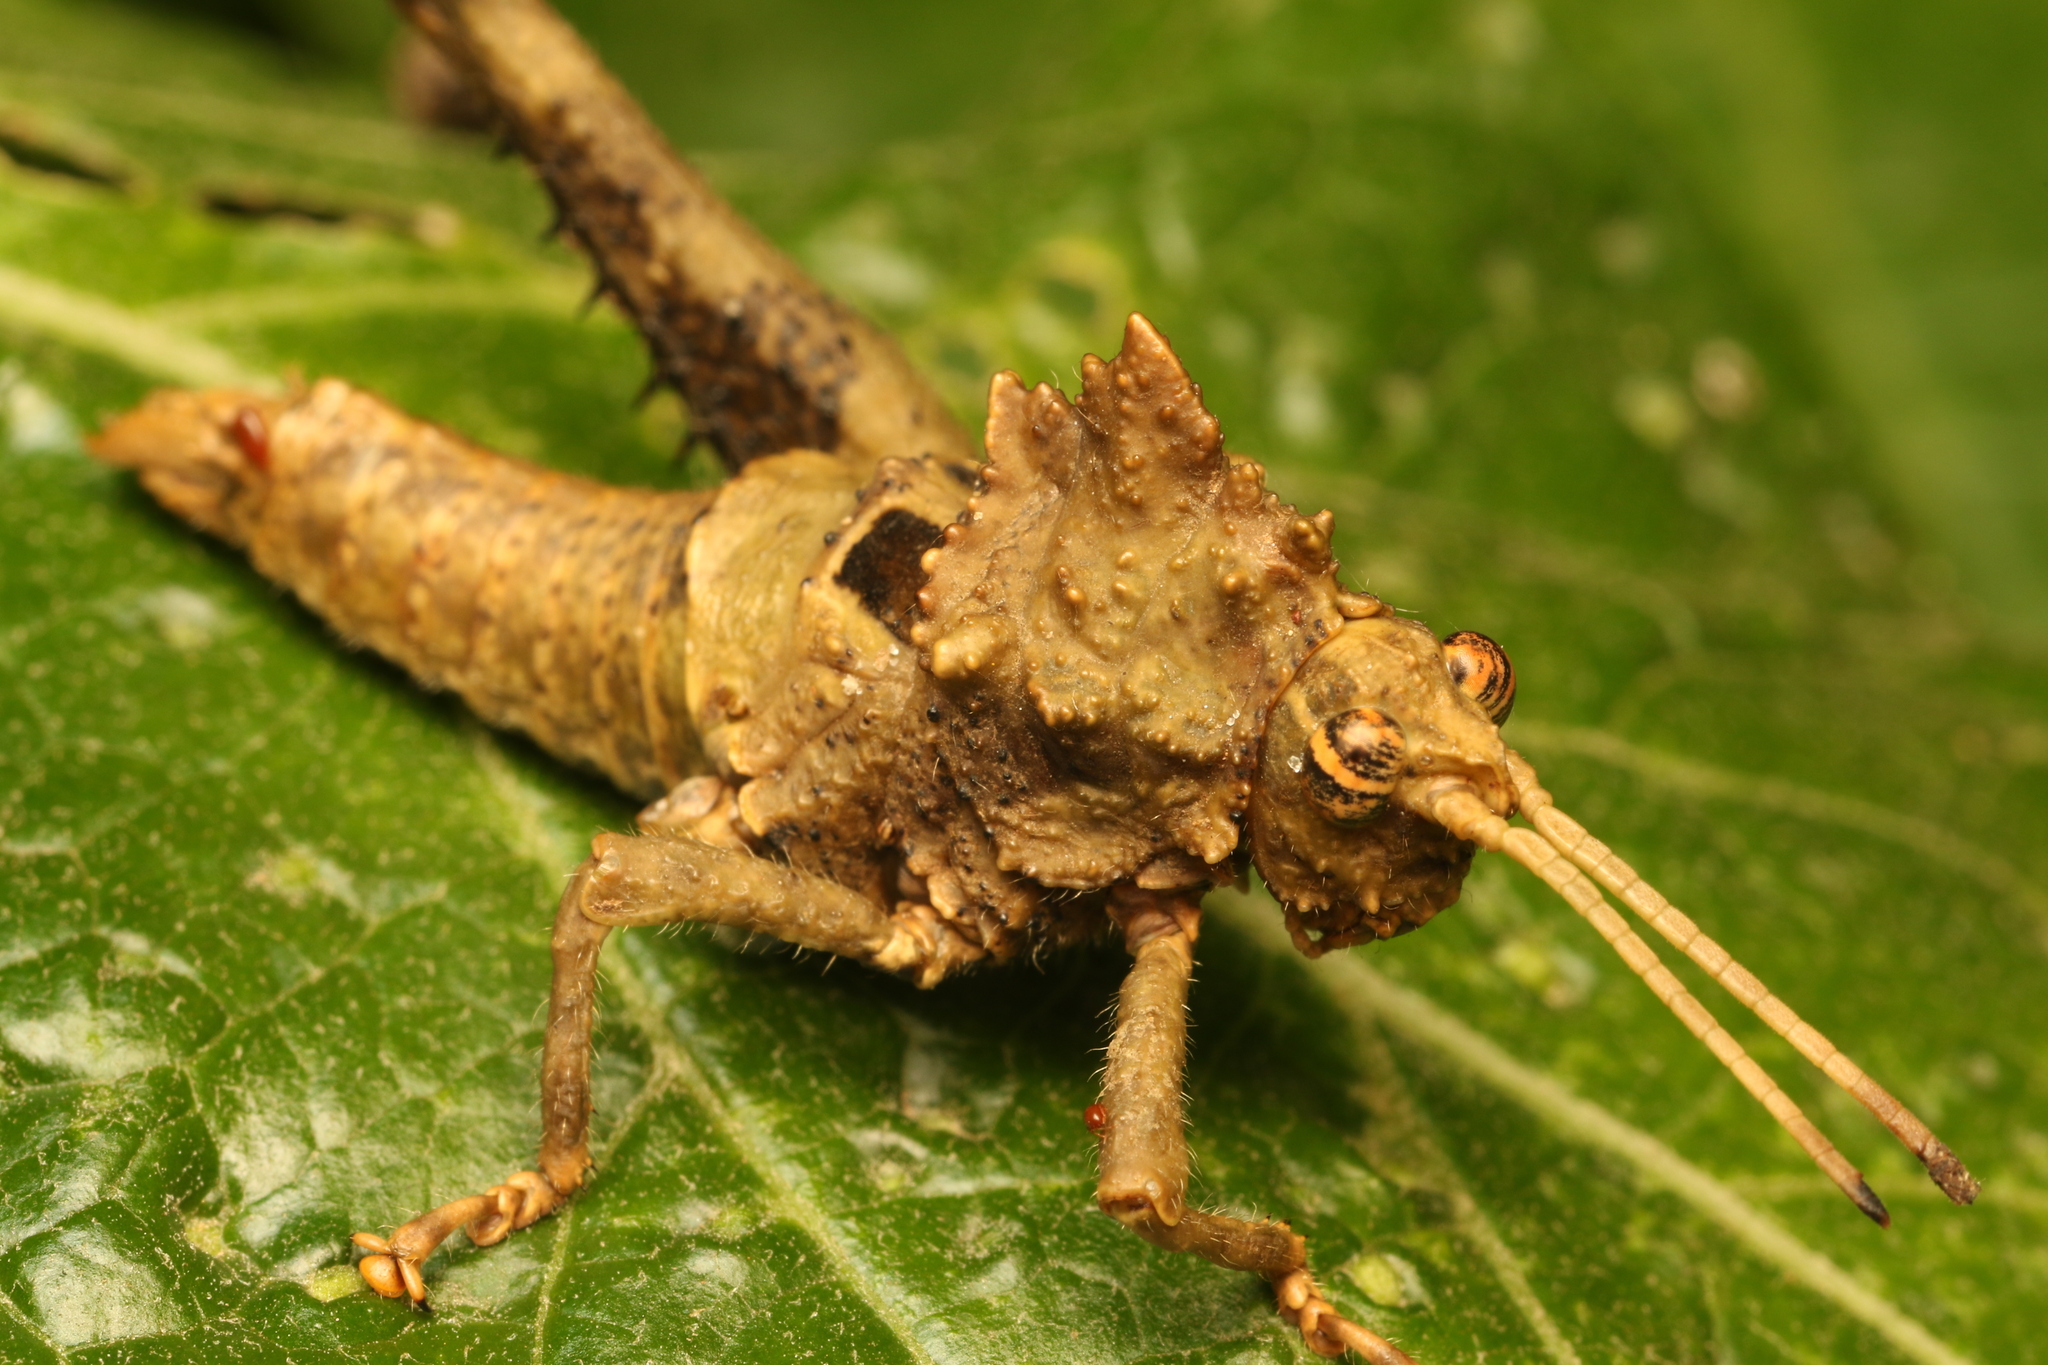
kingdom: Animalia
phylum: Arthropoda
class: Insecta
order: Orthoptera
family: Acrididae
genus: Pycnosarcus
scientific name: Pycnosarcus atavus
